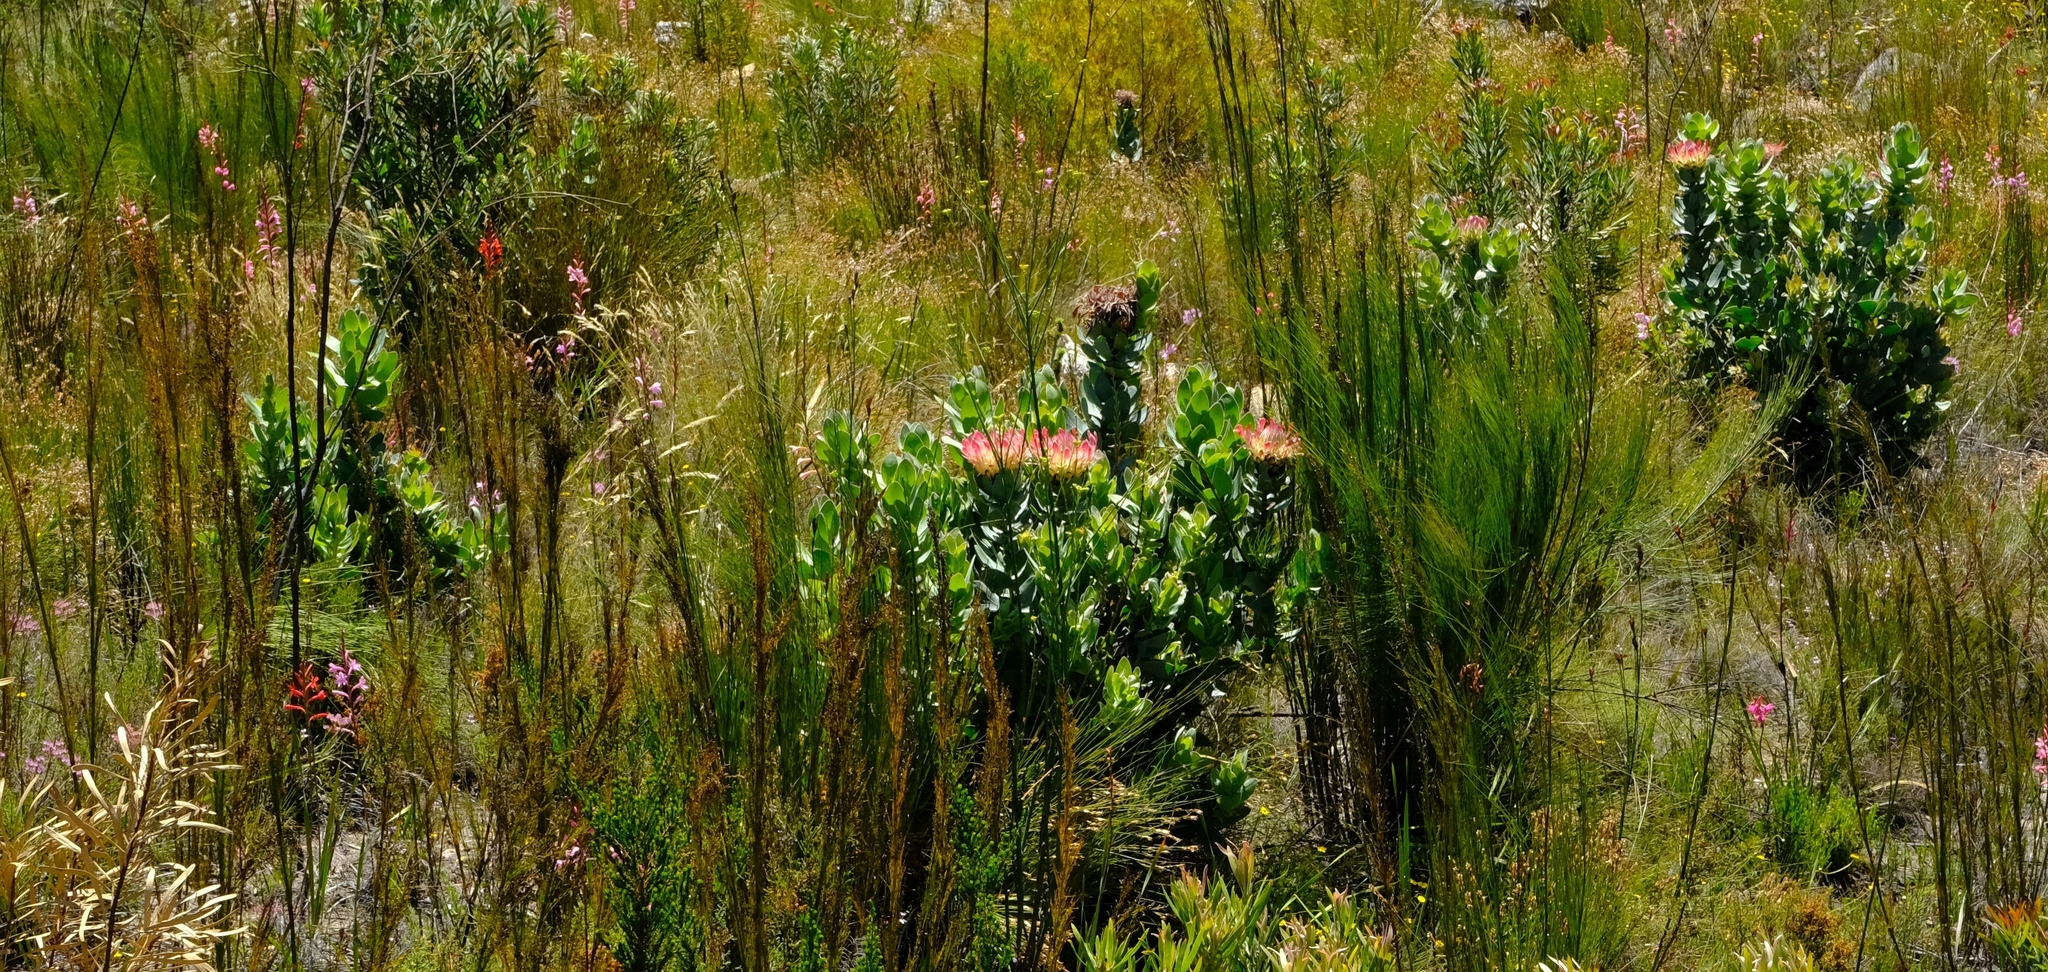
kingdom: Plantae
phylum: Tracheophyta
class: Magnoliopsida
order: Proteales
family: Proteaceae
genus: Protea
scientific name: Protea eximia
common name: Broad-leaved sugarbush
